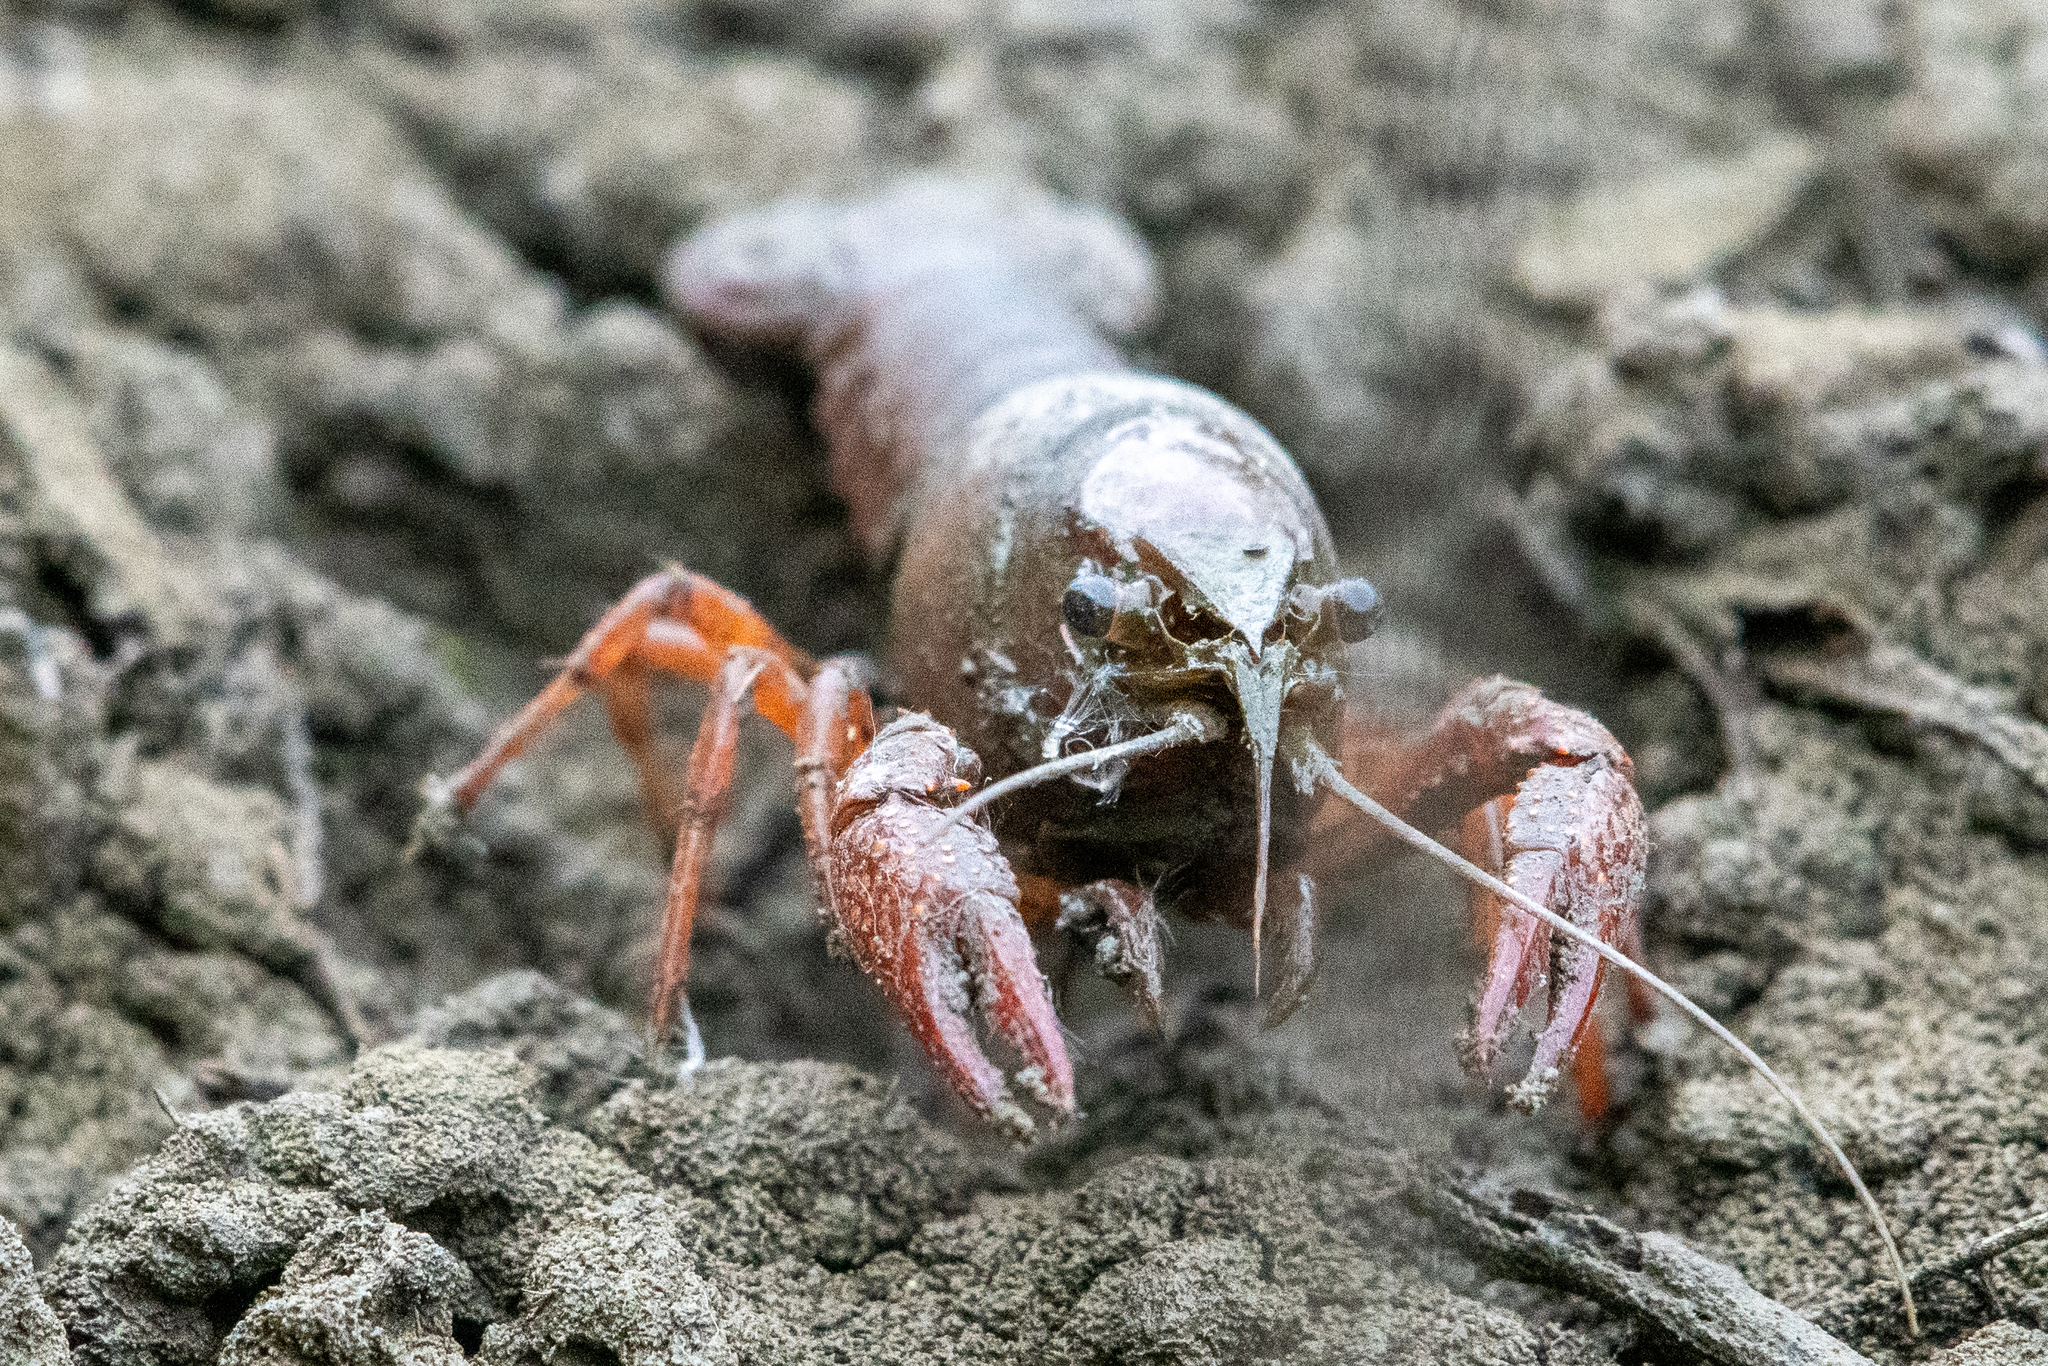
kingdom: Animalia
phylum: Arthropoda
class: Malacostraca
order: Decapoda
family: Cambaridae
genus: Procambarus
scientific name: Procambarus clarkii
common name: Red swamp crayfish
